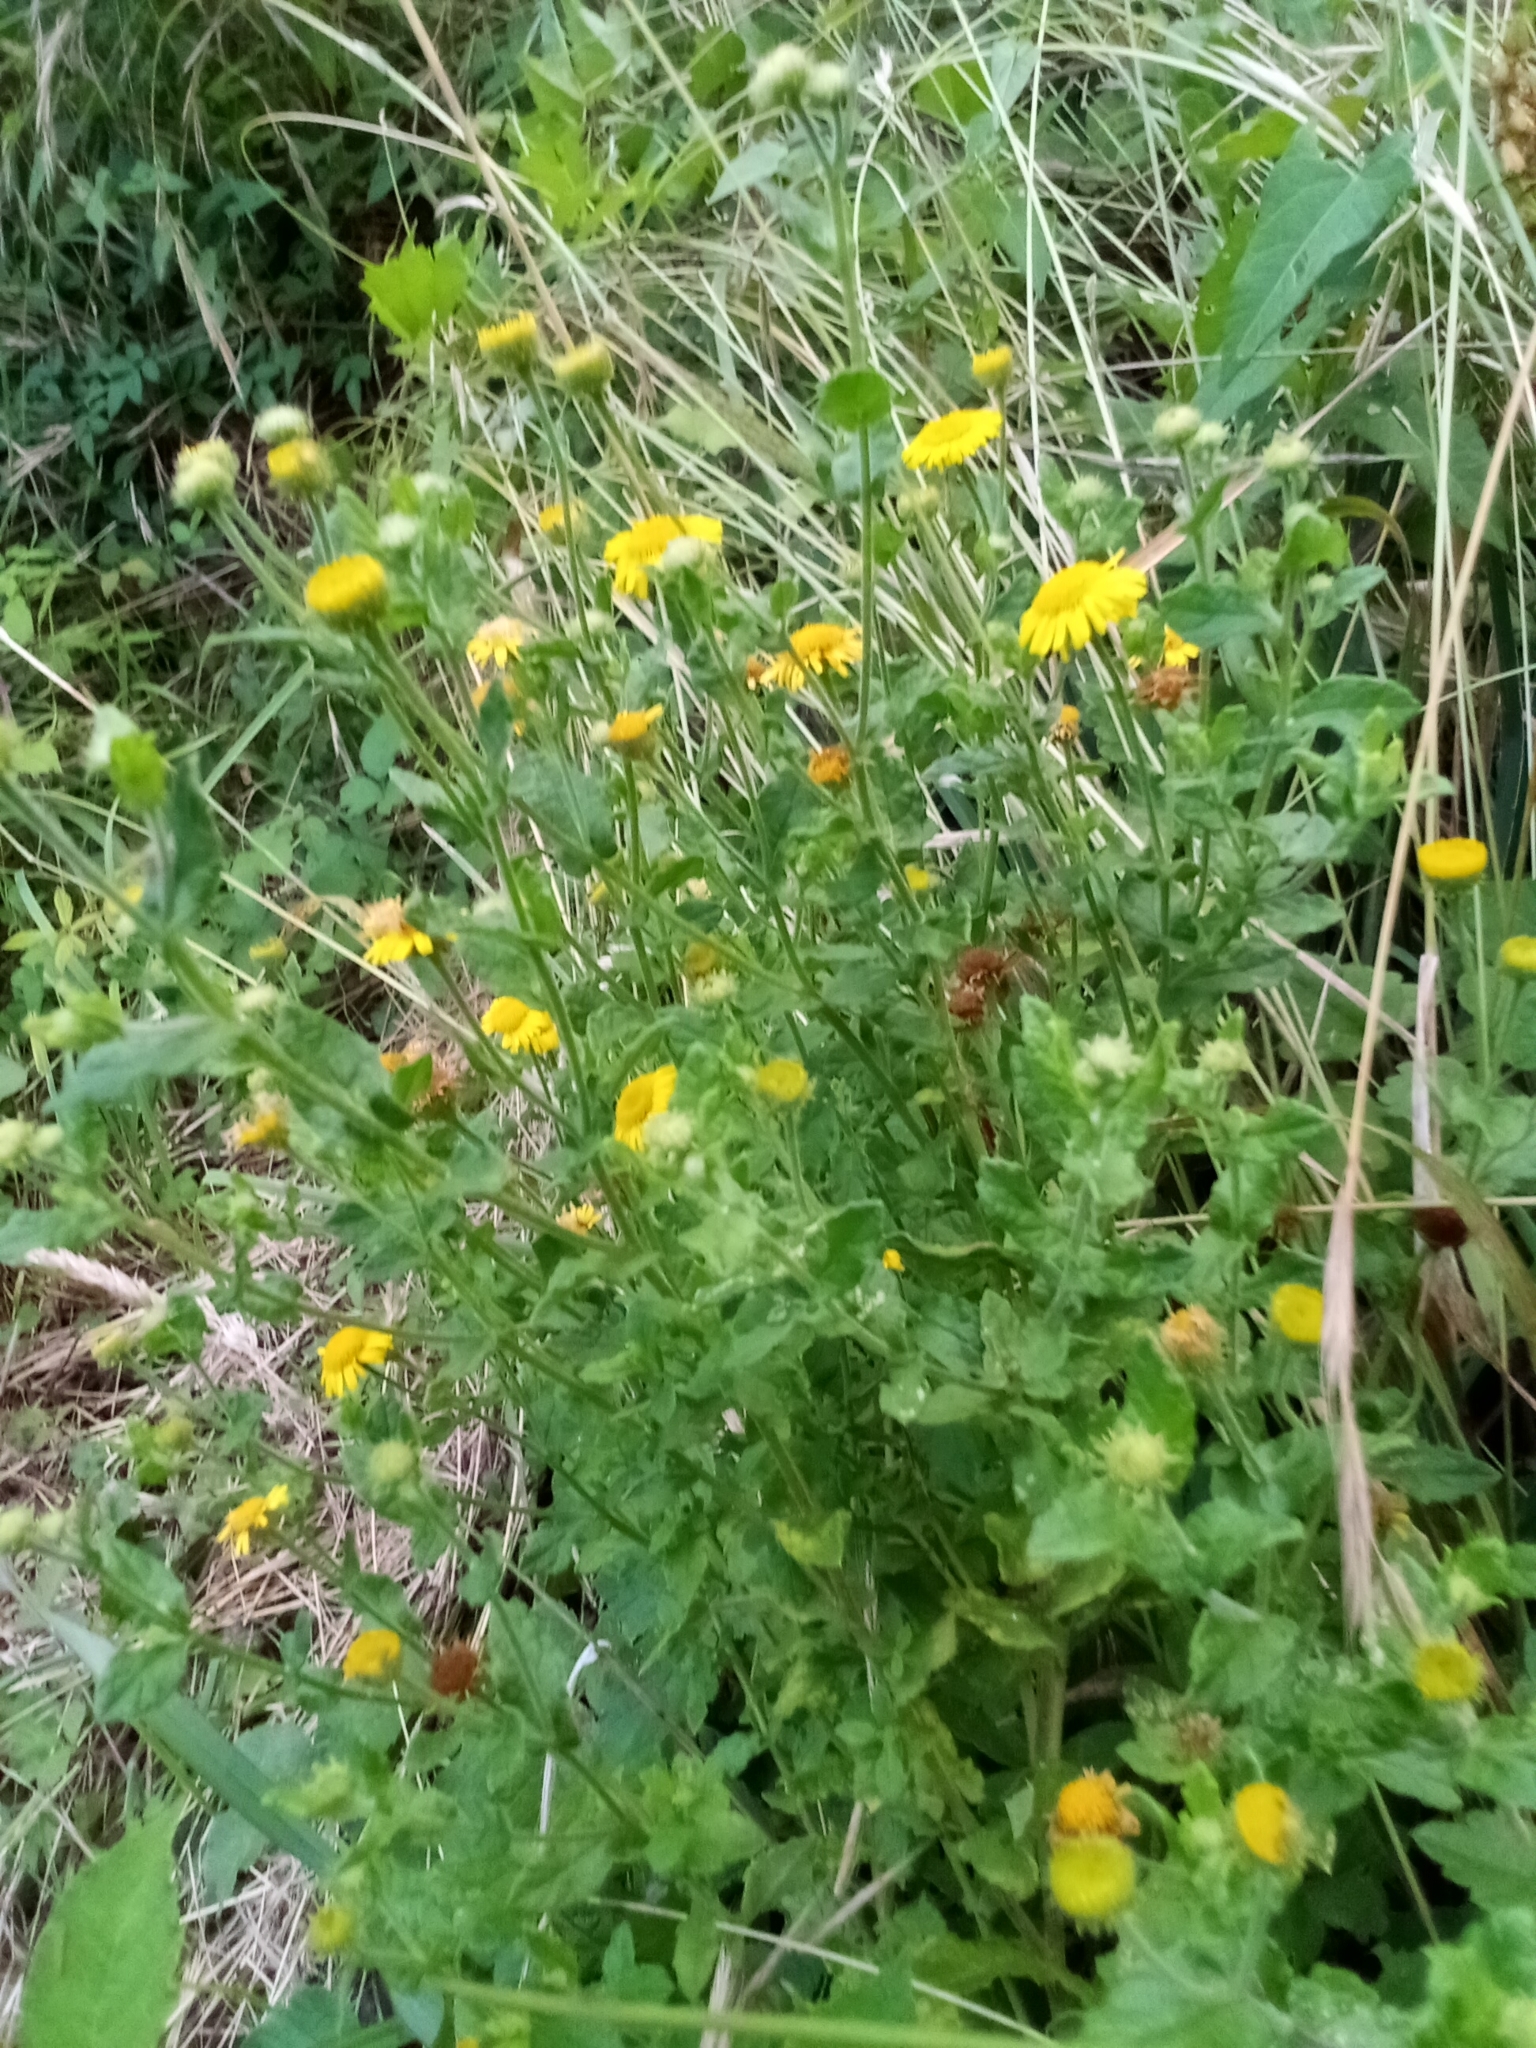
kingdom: Plantae
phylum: Tracheophyta
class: Magnoliopsida
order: Asterales
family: Asteraceae
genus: Pulicaria
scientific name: Pulicaria dysenterica
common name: Common fleabane
